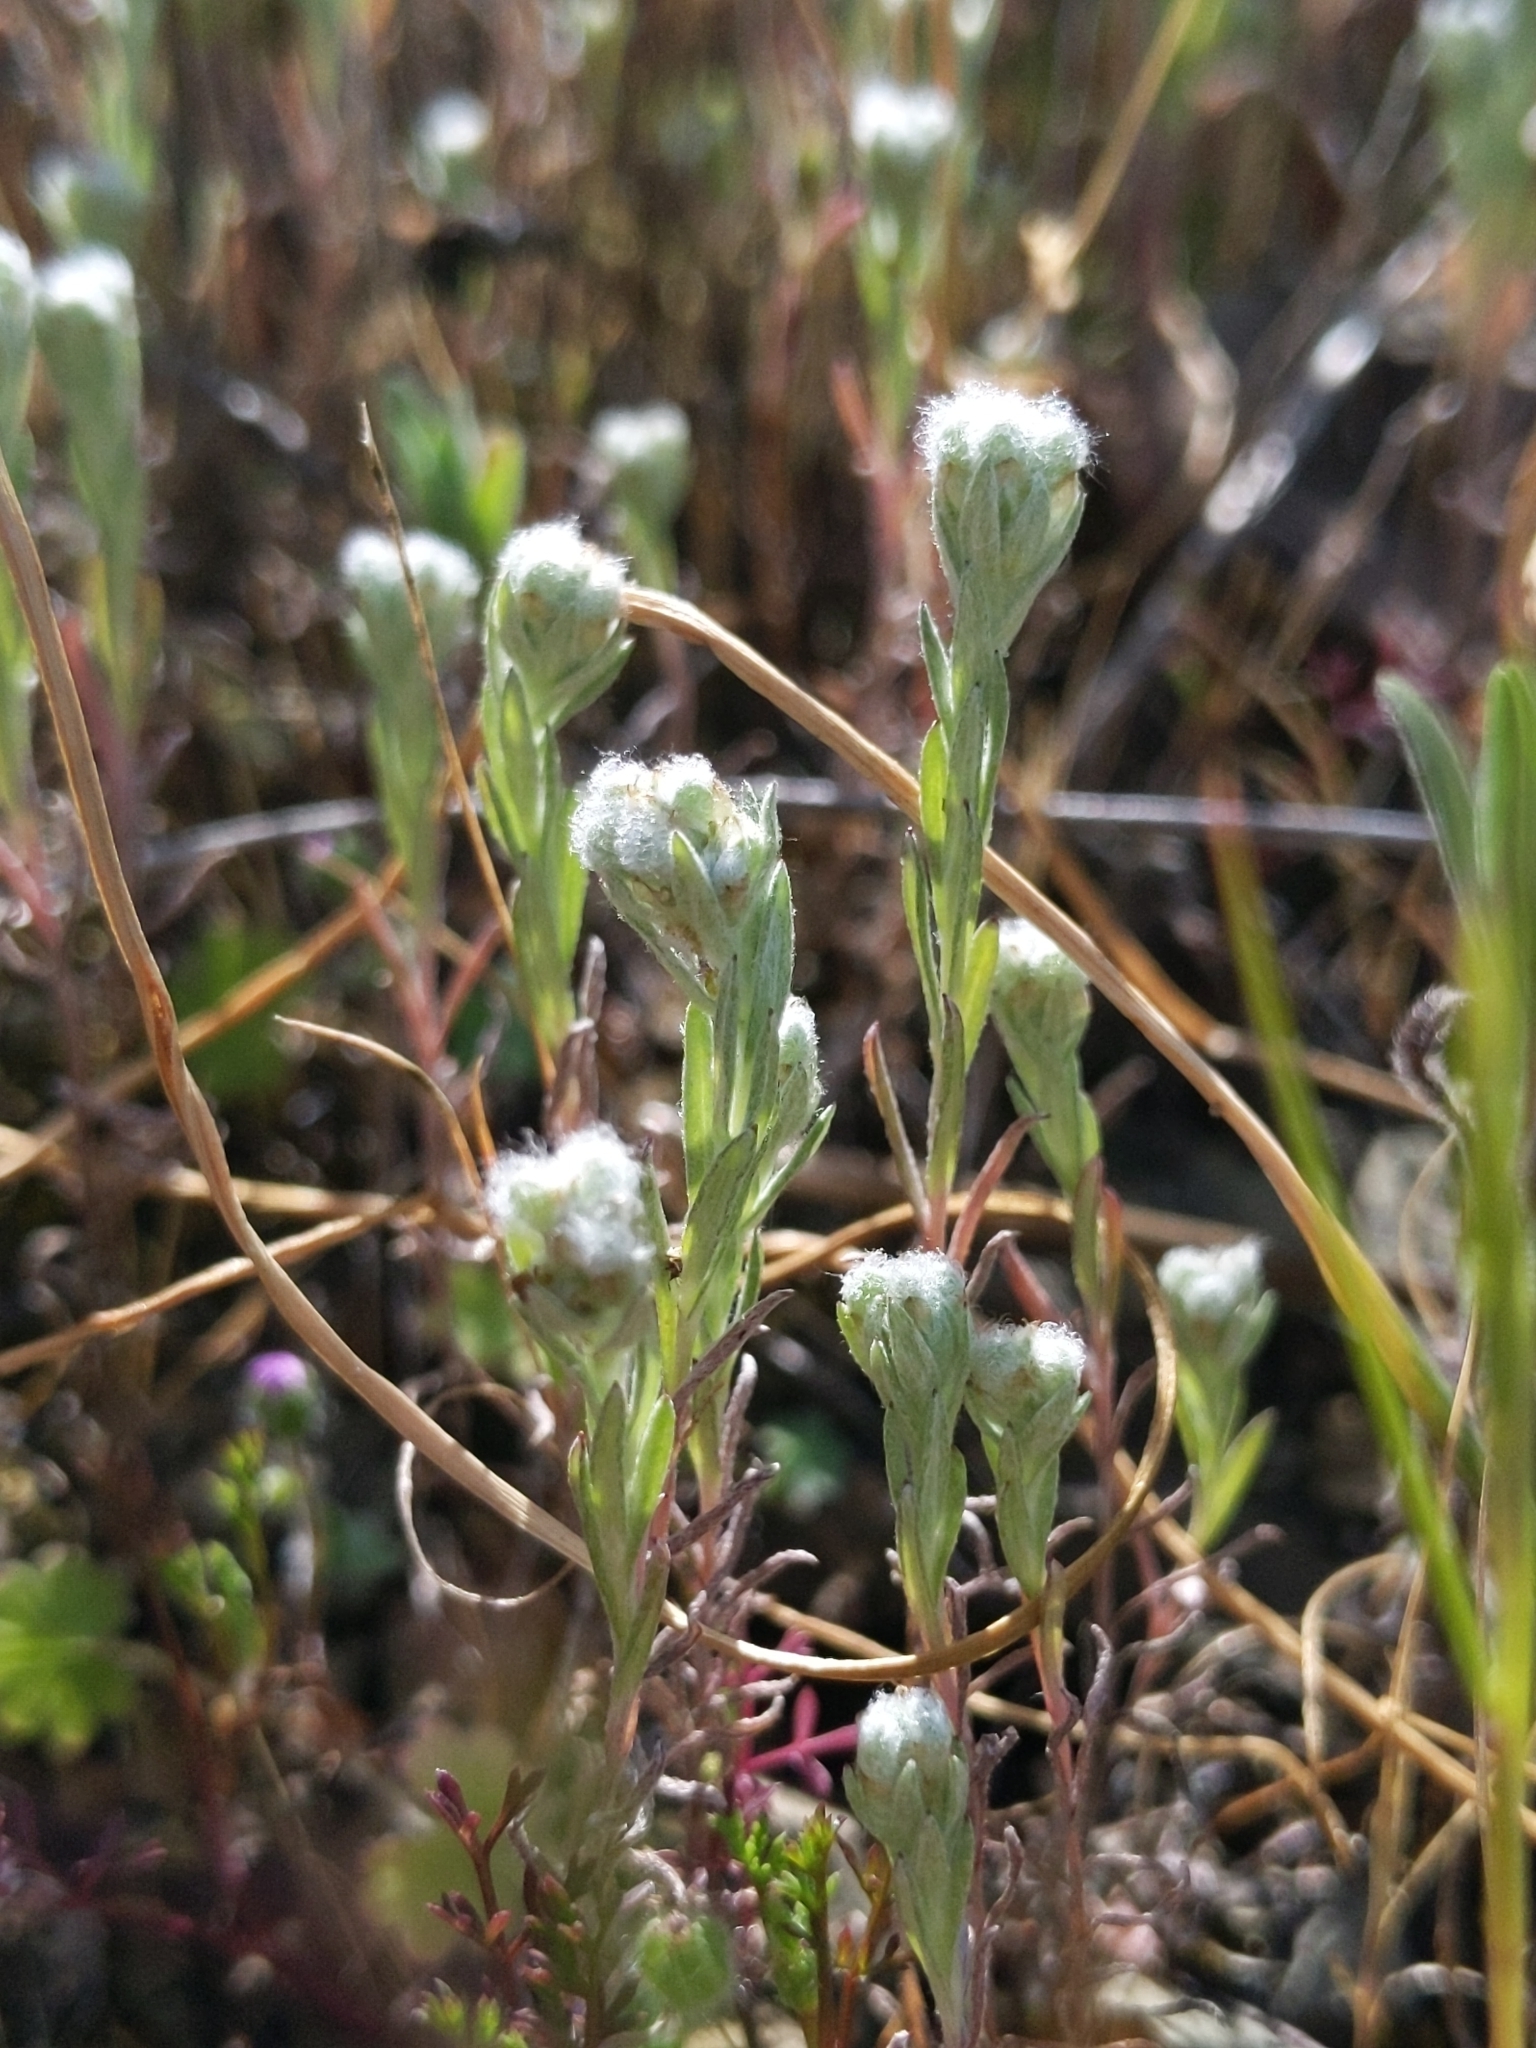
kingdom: Plantae
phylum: Tracheophyta
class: Magnoliopsida
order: Asterales
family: Asteraceae
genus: Bombycilaena
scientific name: Bombycilaena californica
